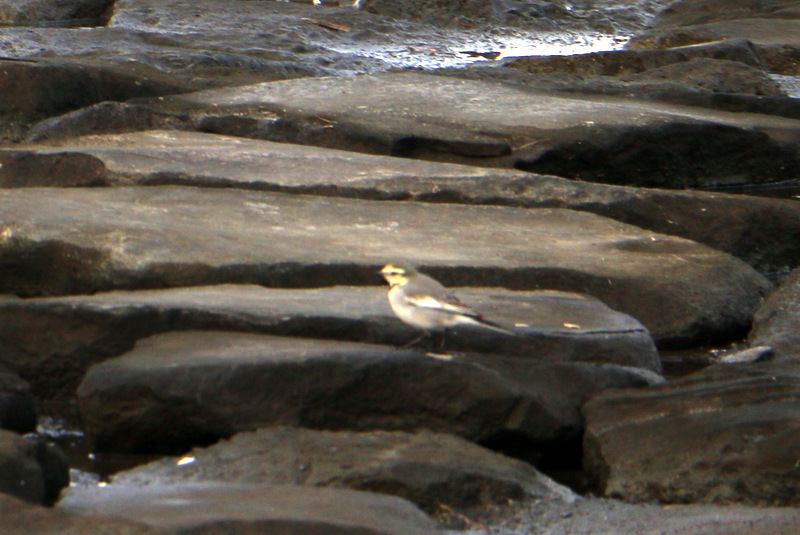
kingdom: Animalia
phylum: Chordata
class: Aves
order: Passeriformes
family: Motacillidae
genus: Motacilla
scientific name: Motacilla alba
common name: White wagtail
